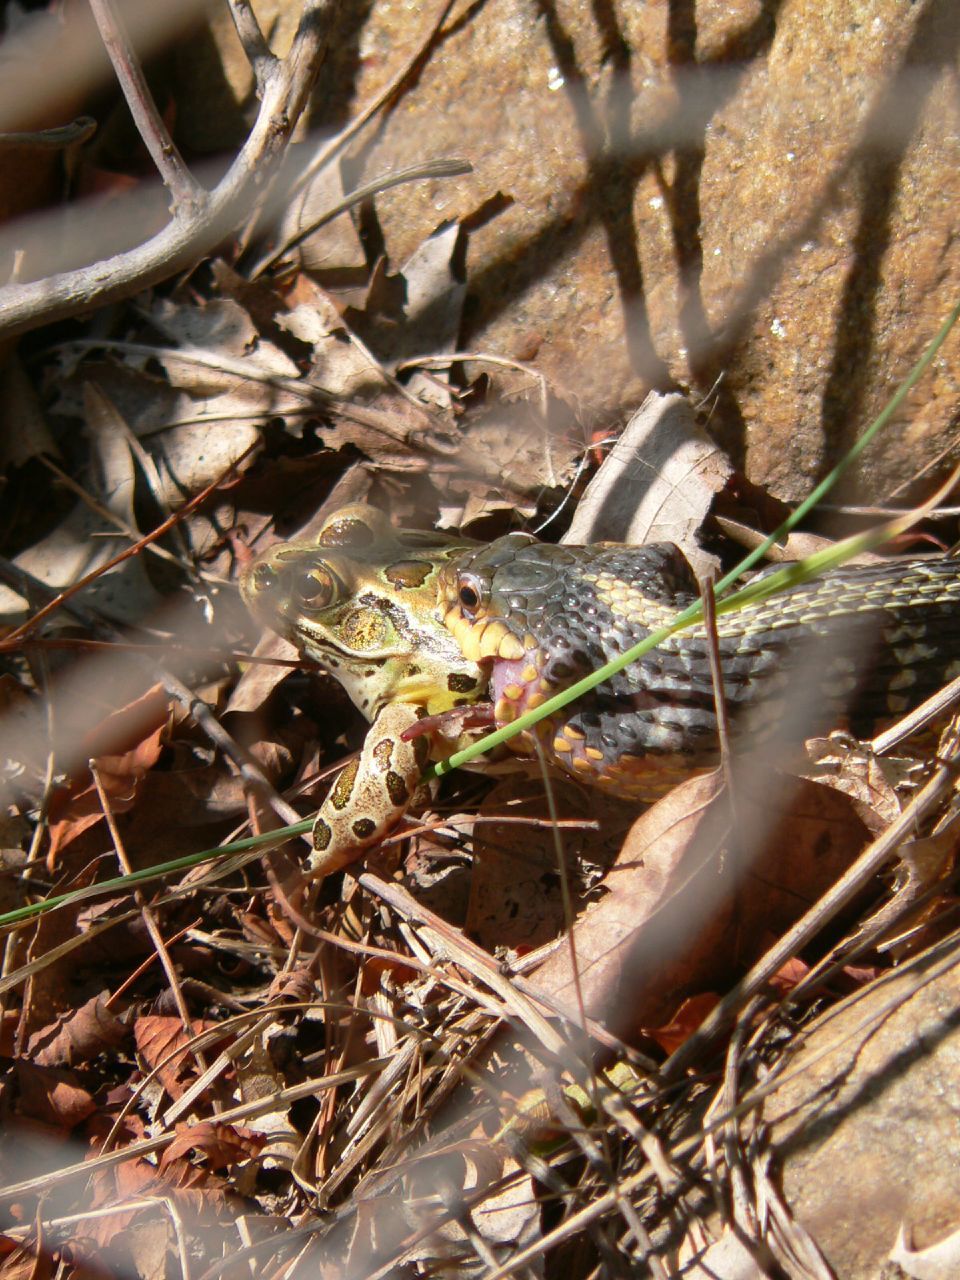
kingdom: Animalia
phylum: Chordata
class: Squamata
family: Colubridae
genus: Thamnophis
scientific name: Thamnophis sirtalis
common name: Common garter snake
